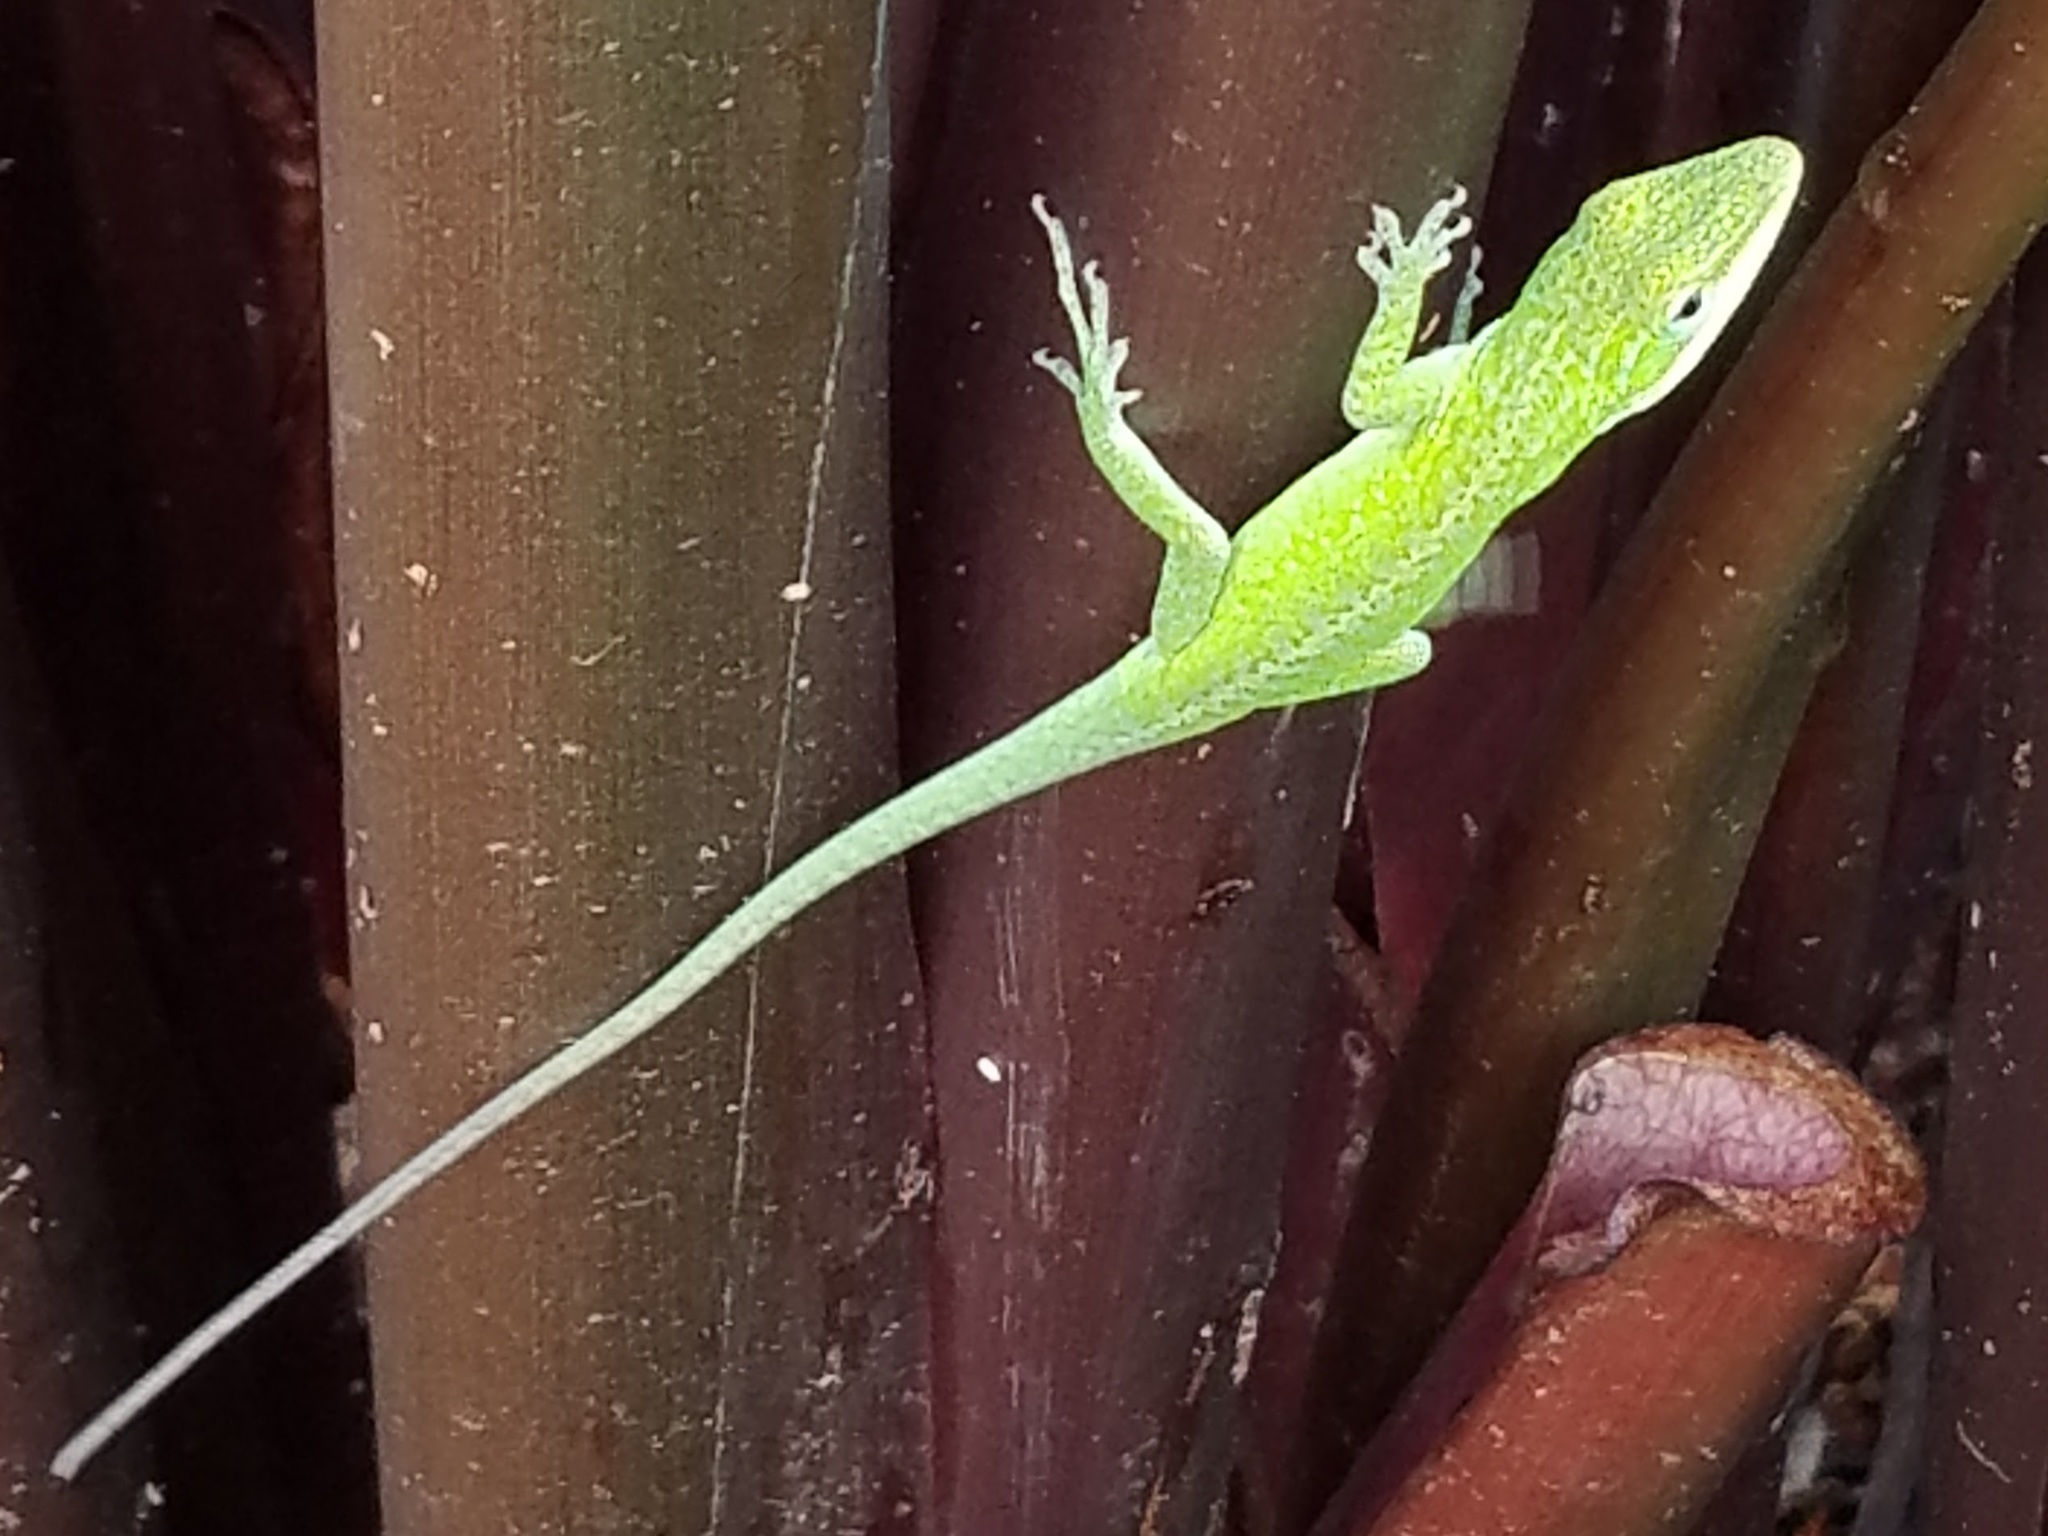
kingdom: Animalia
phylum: Chordata
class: Squamata
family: Dactyloidae
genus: Anolis
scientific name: Anolis carolinensis
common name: Green anole
